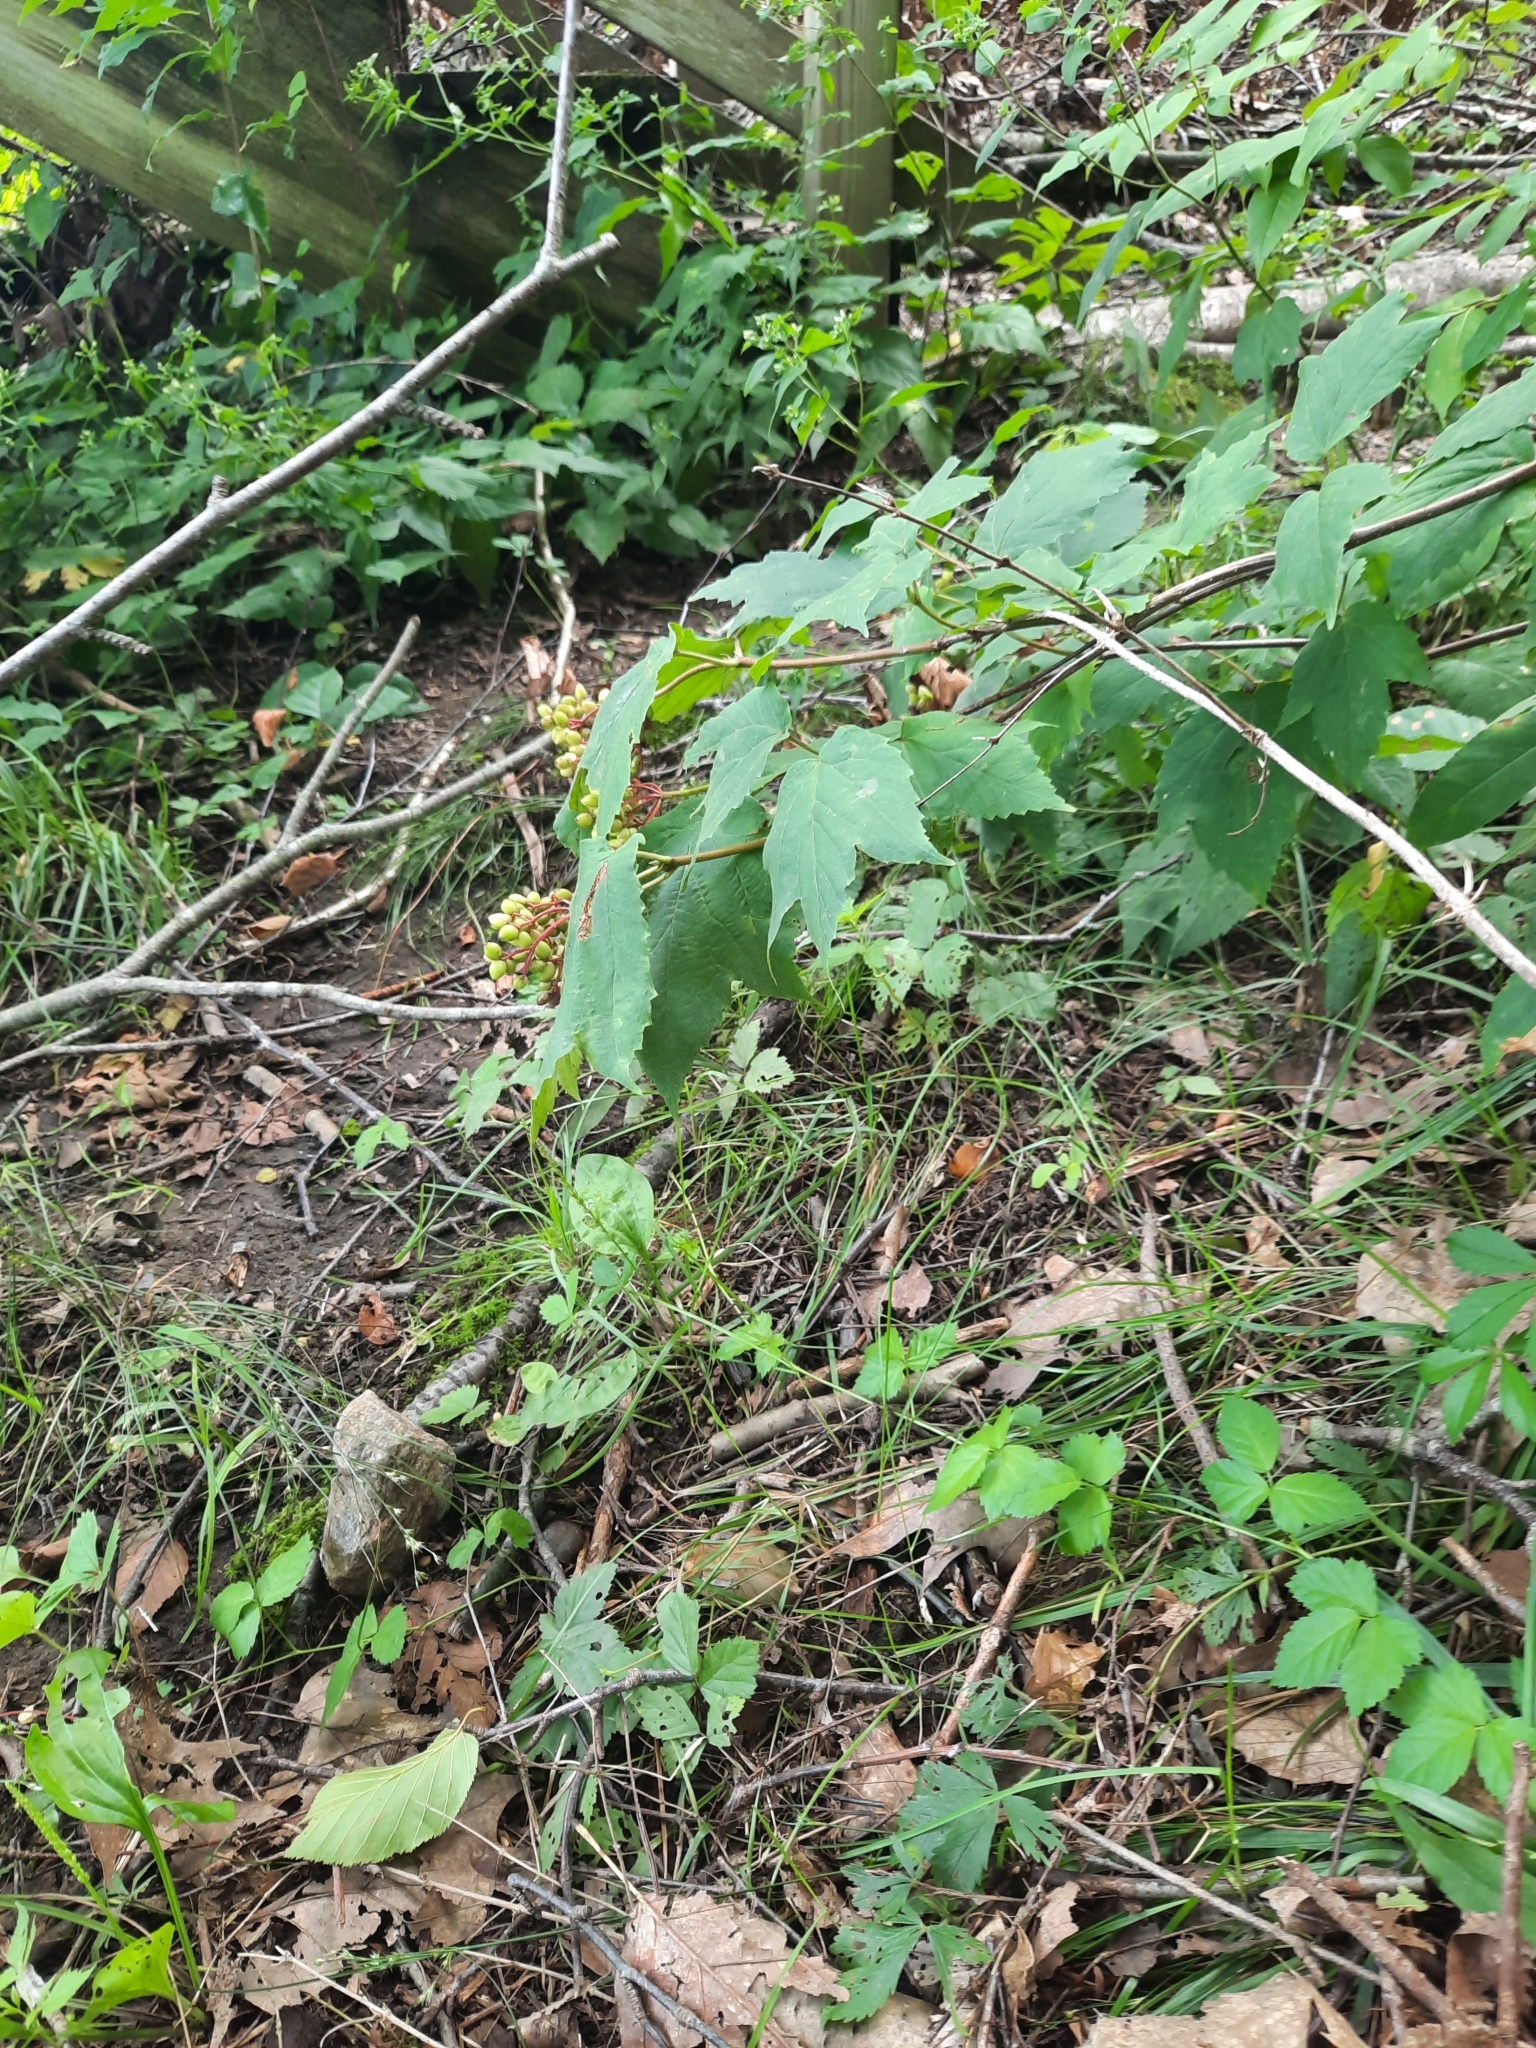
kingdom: Plantae
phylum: Tracheophyta
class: Magnoliopsida
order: Dipsacales
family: Viburnaceae
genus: Viburnum
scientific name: Viburnum acerifolium
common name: Dockmackie
